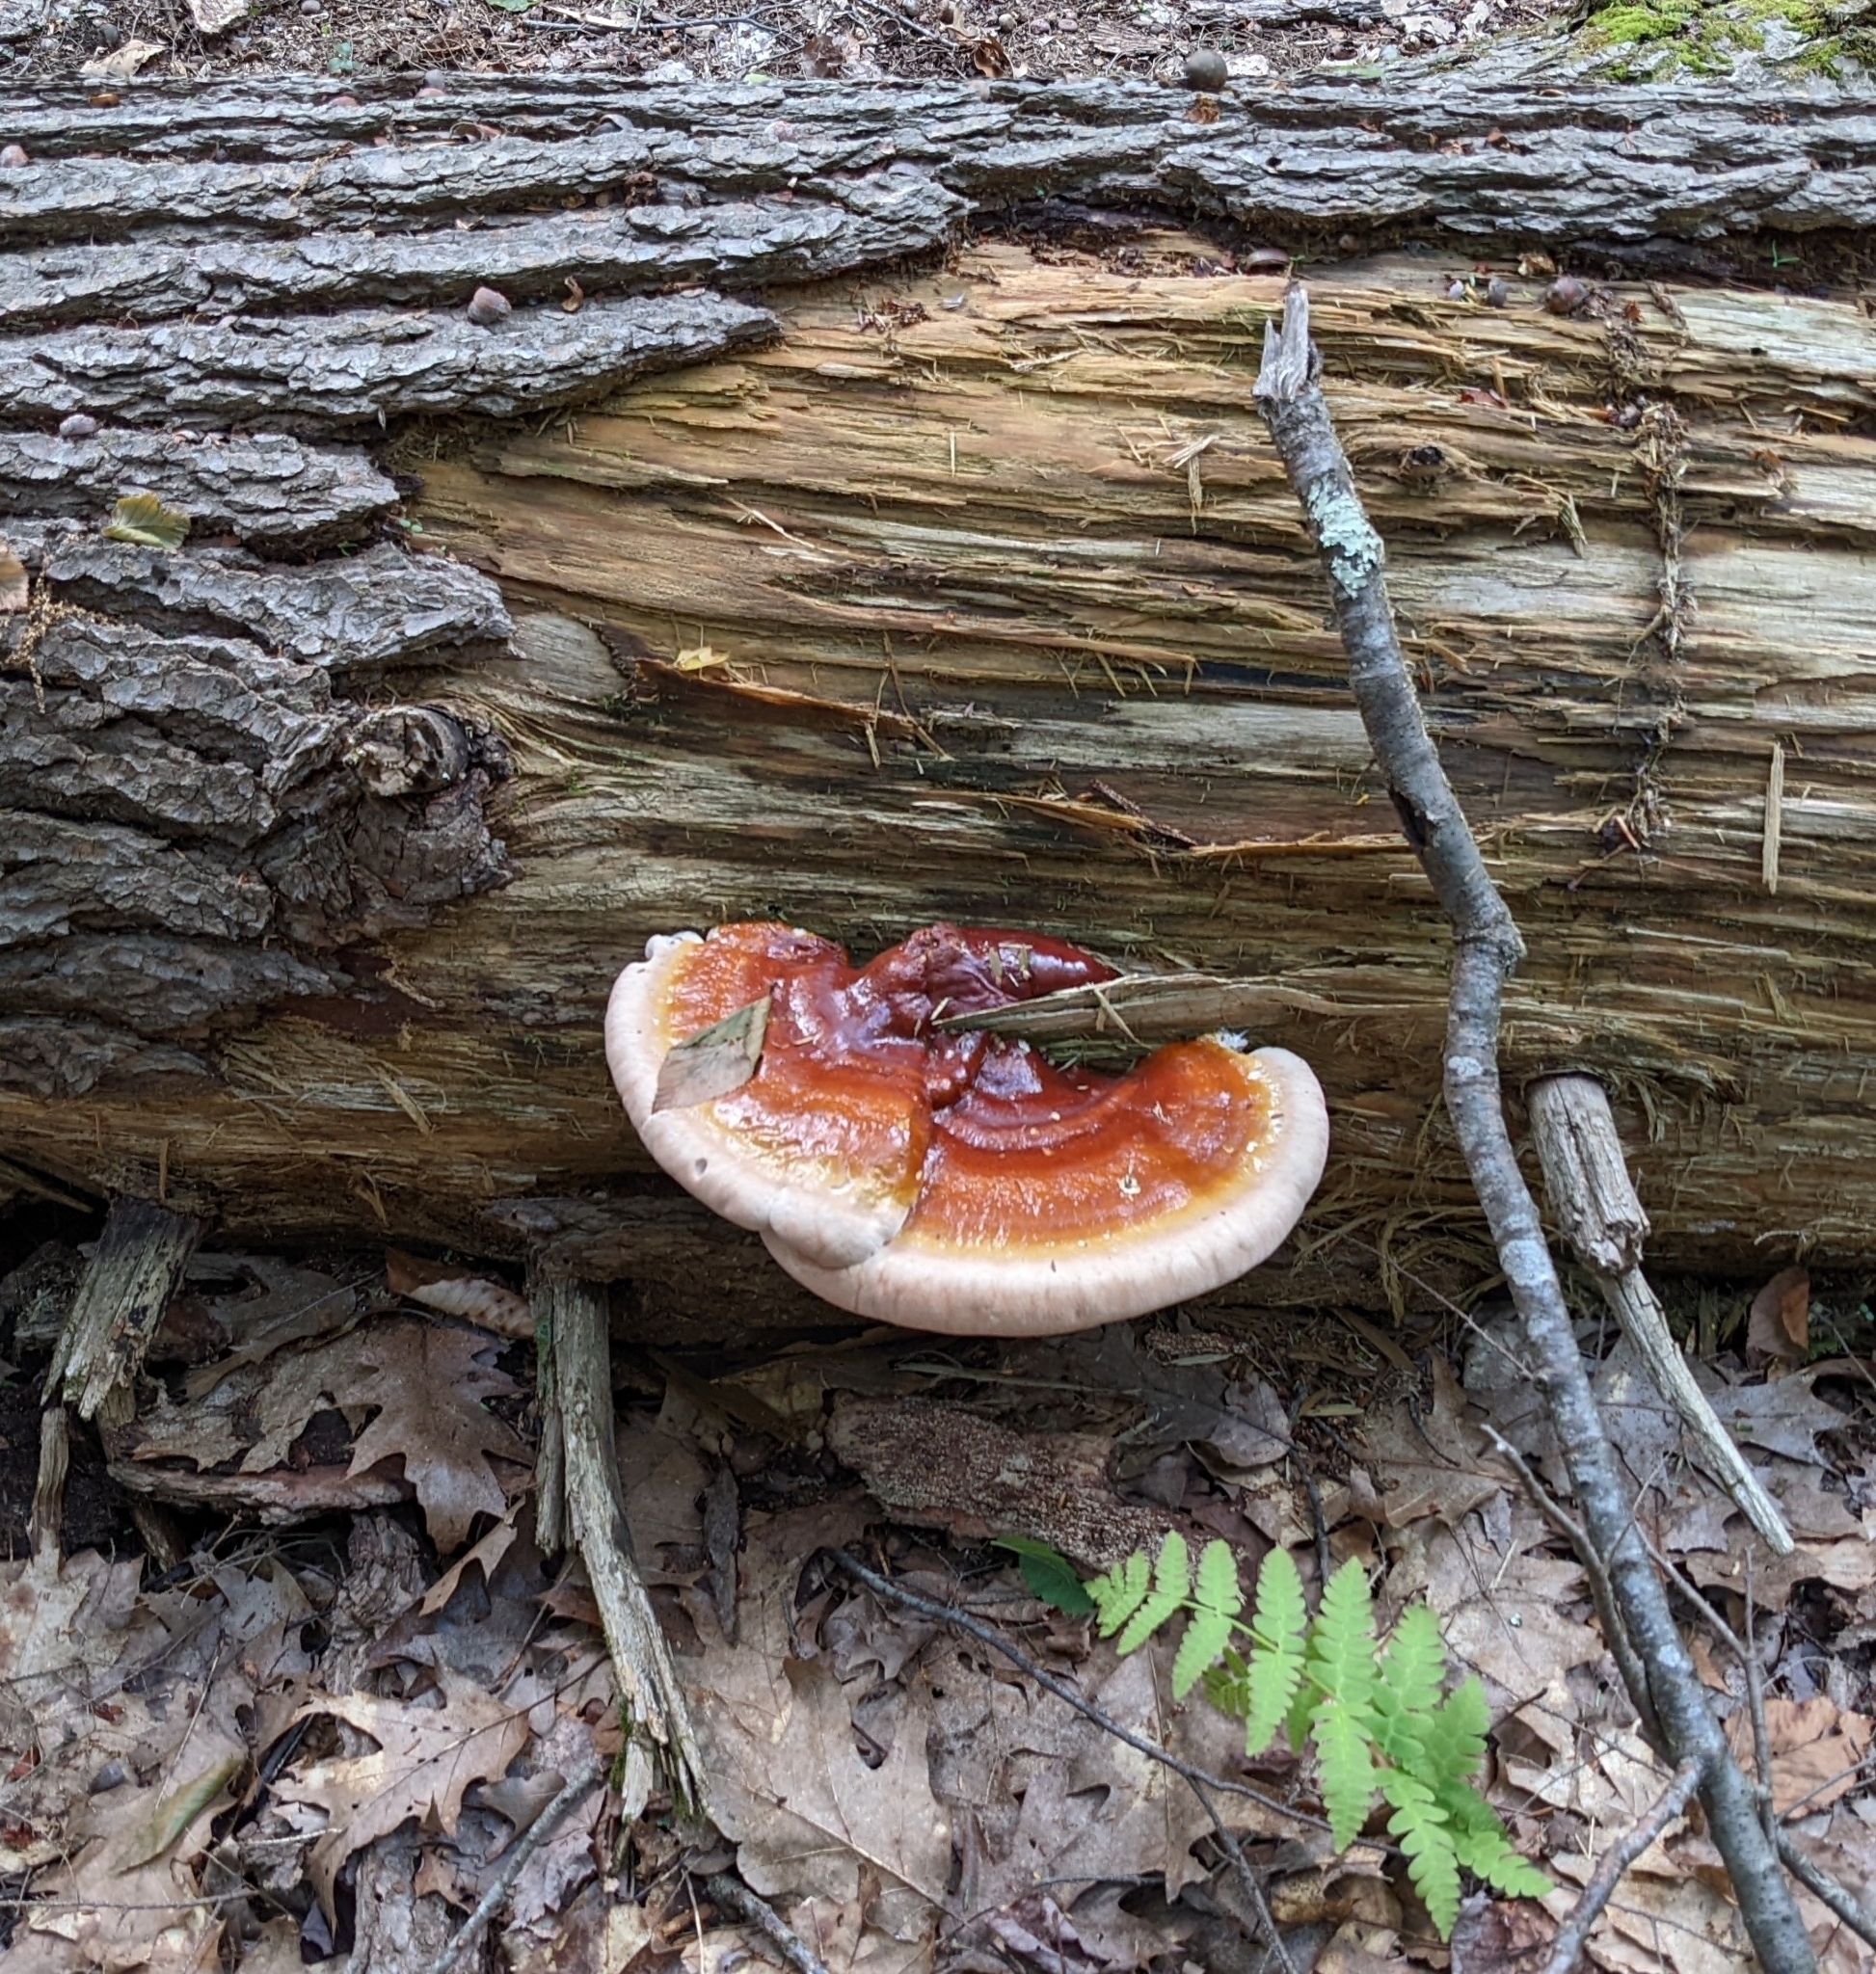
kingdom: Fungi
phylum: Basidiomycota
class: Agaricomycetes
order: Polyporales
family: Polyporaceae
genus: Ganoderma
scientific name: Ganoderma tsugae
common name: Hemlock varnish shelf
